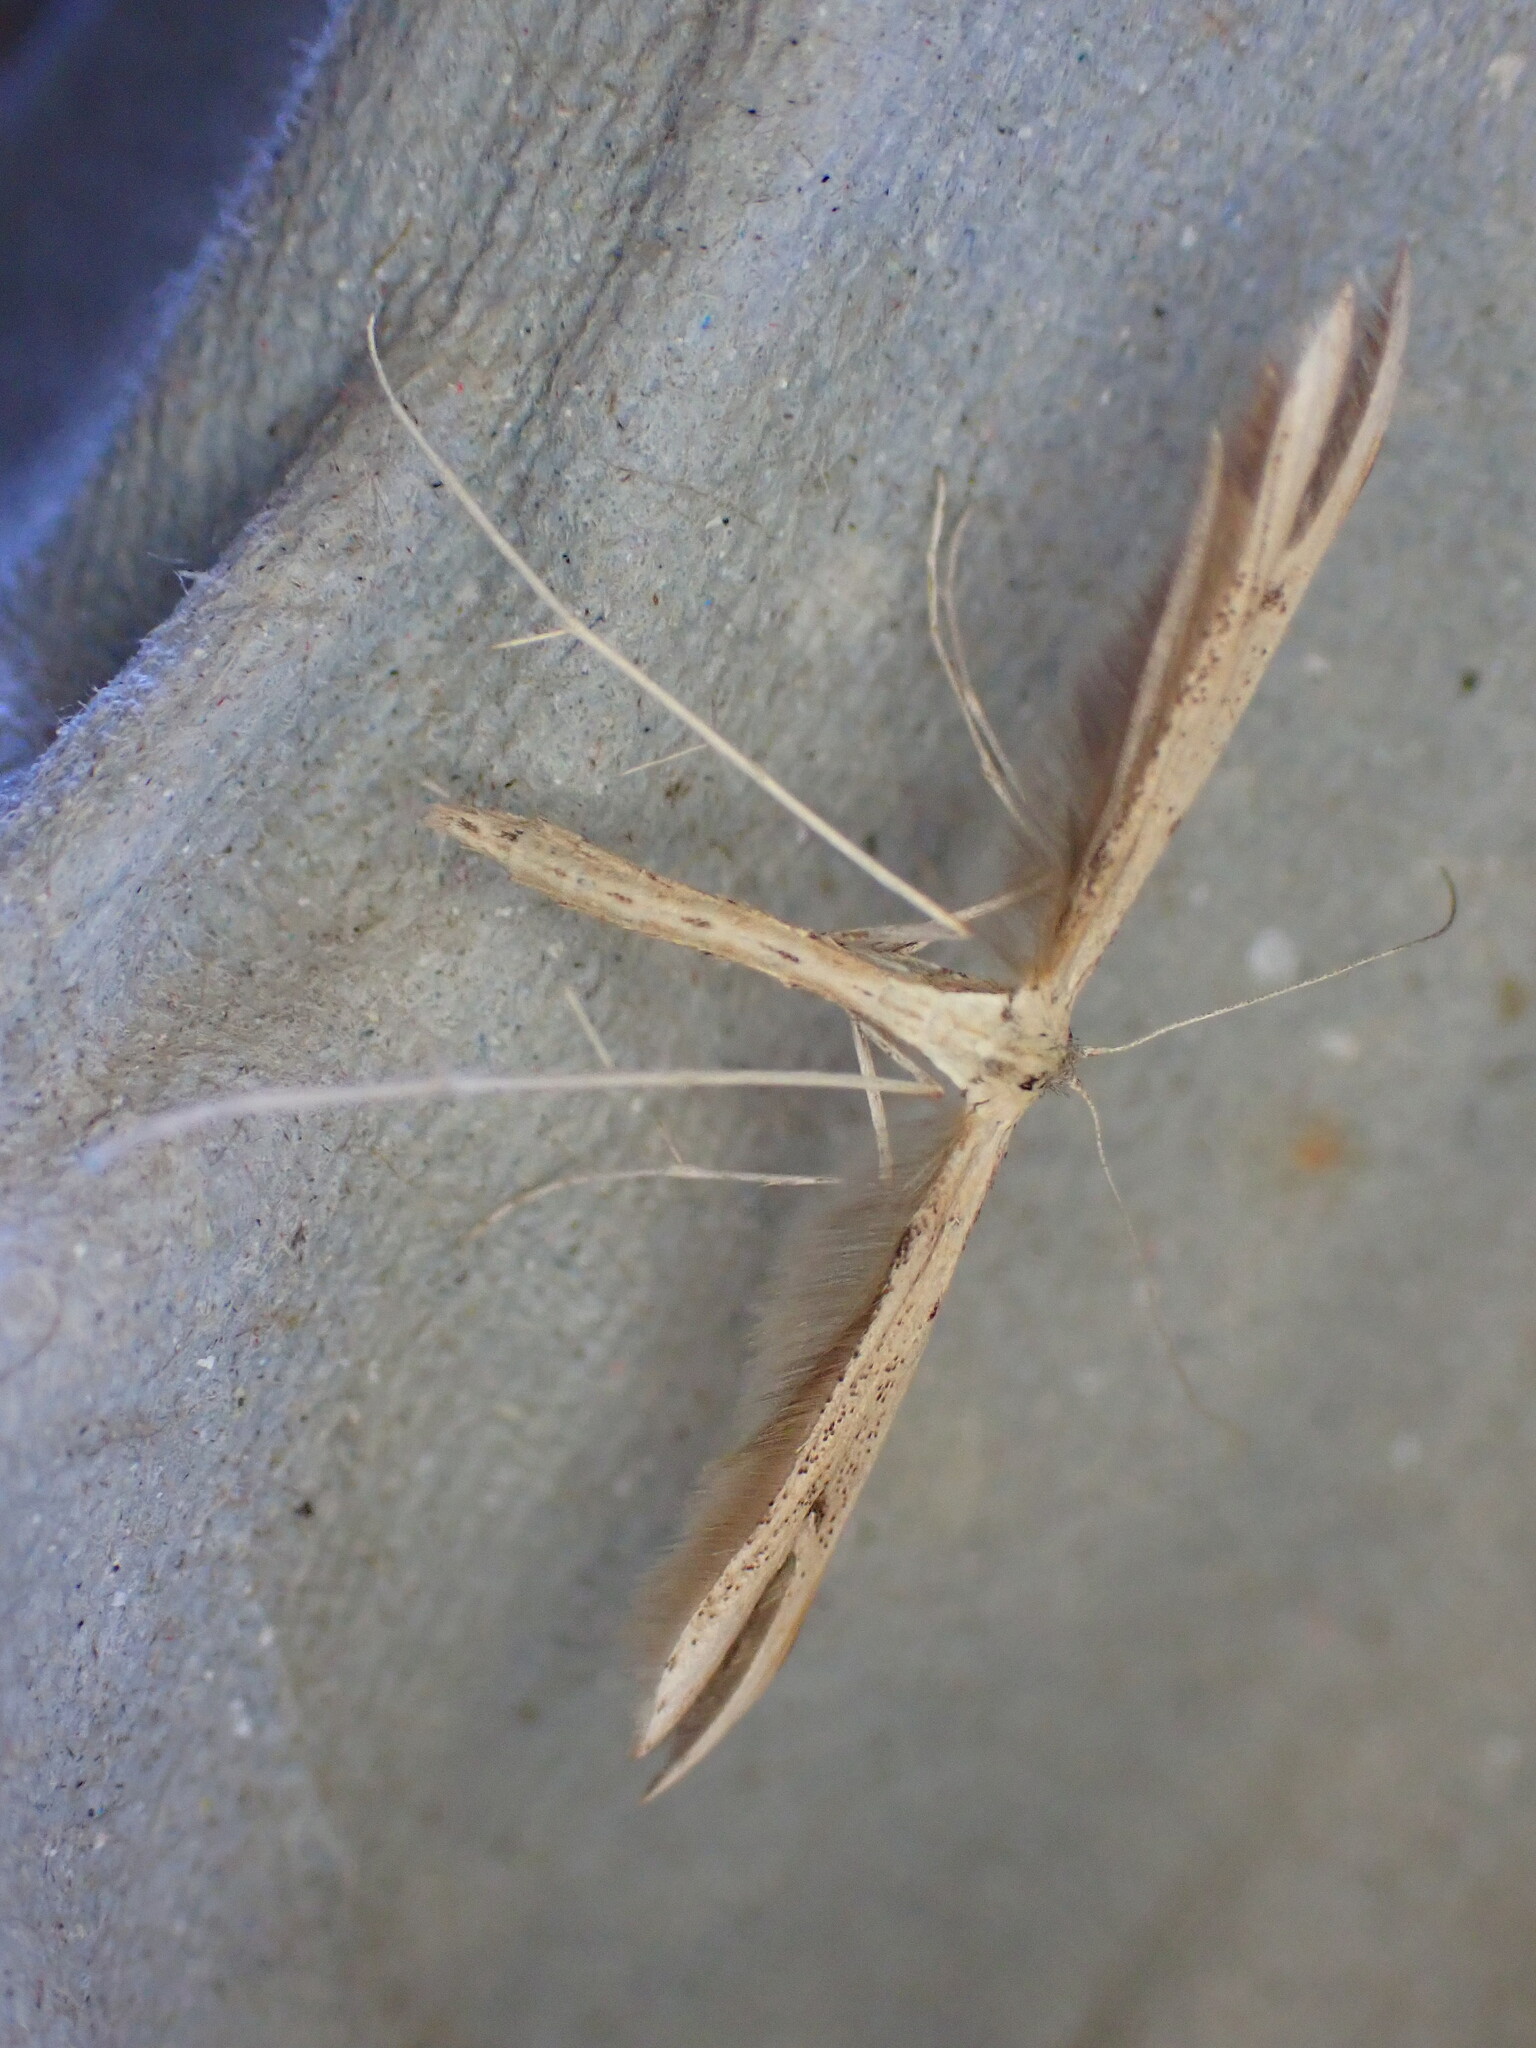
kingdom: Animalia
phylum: Arthropoda
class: Insecta
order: Lepidoptera
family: Pterophoridae
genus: Emmelina
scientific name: Emmelina monodactyla
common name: Common plume
